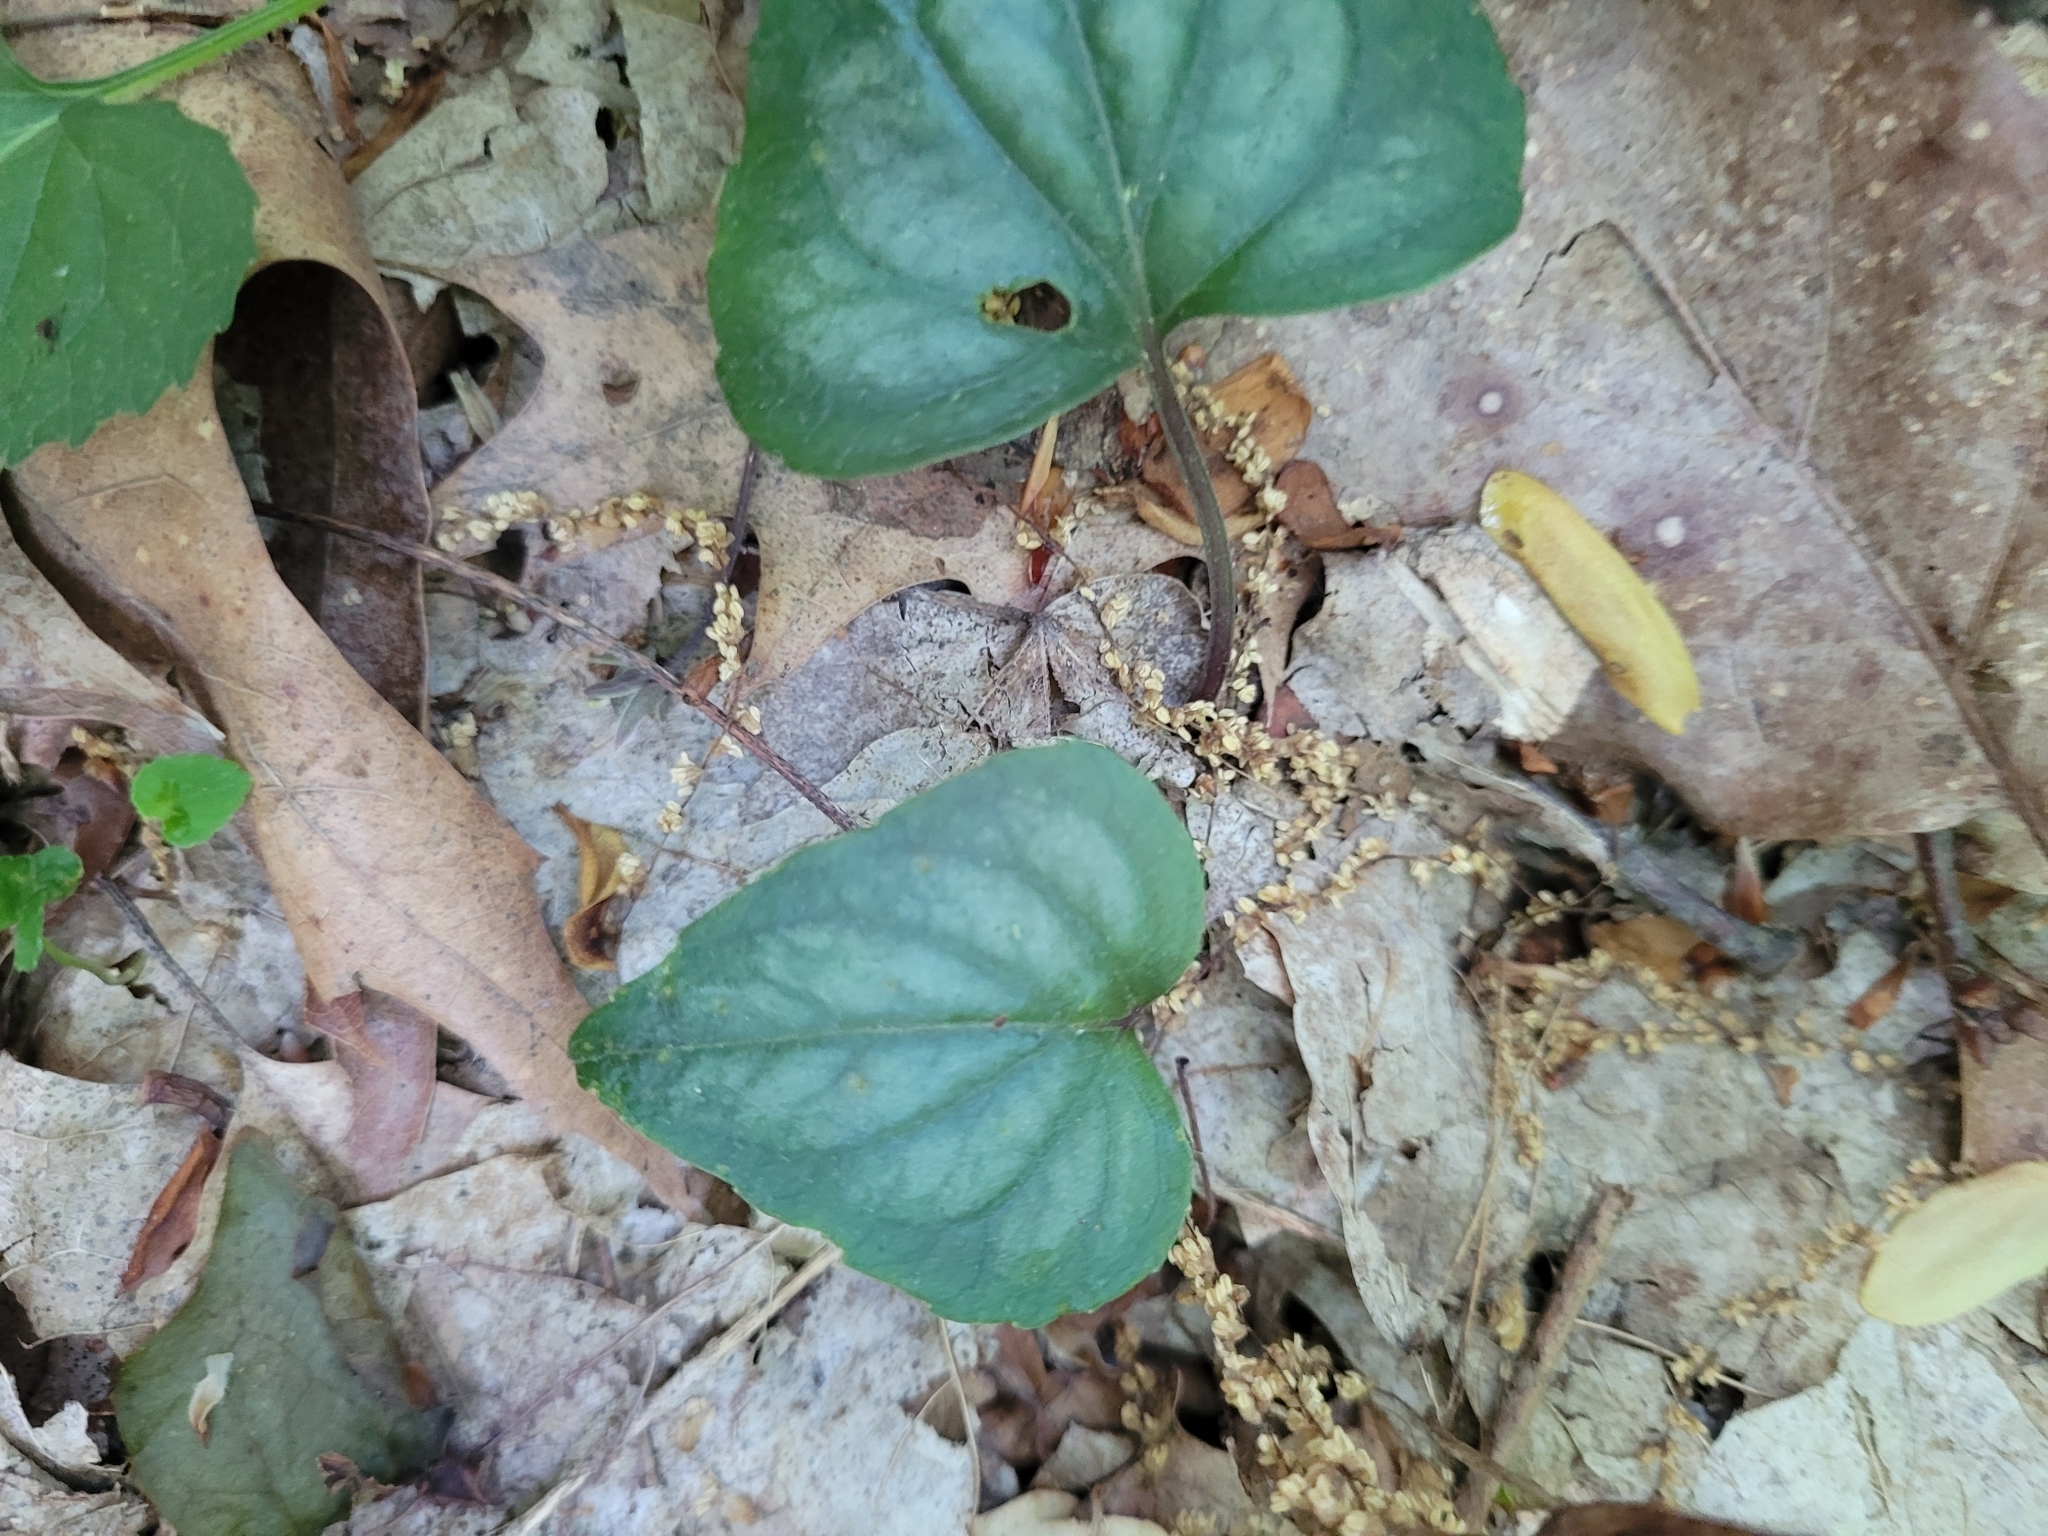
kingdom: Plantae
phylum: Tracheophyta
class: Magnoliopsida
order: Malpighiales
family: Violaceae
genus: Viola
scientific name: Viola hastata
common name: Spear-leaf violet
